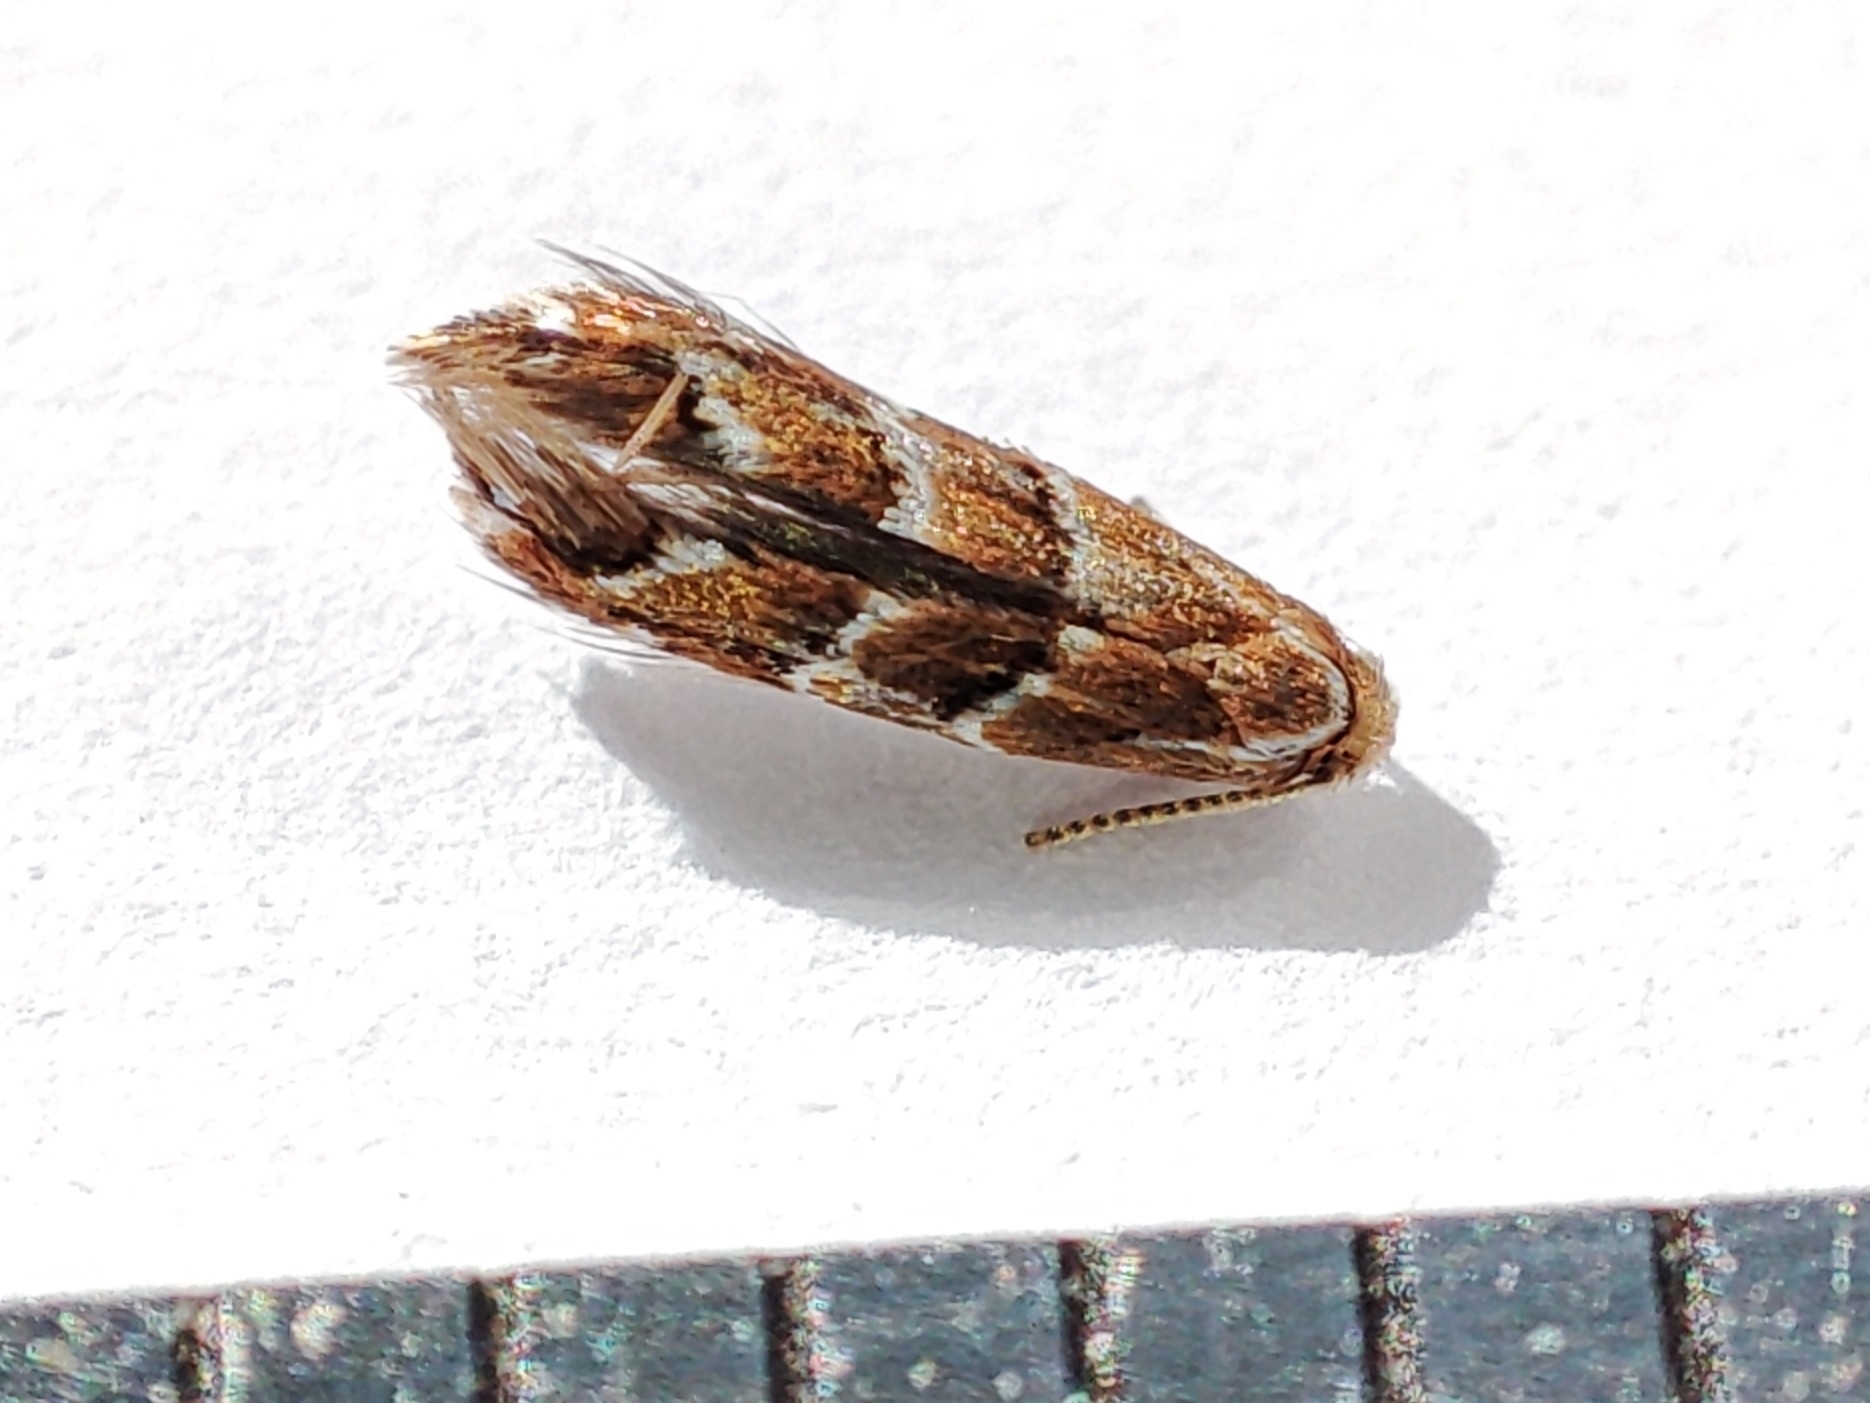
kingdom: Animalia
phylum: Arthropoda
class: Insecta
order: Lepidoptera
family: Gracillariidae
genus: Cameraria
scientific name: Cameraria ohridella
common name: Horse-chestnut leaf-miner
